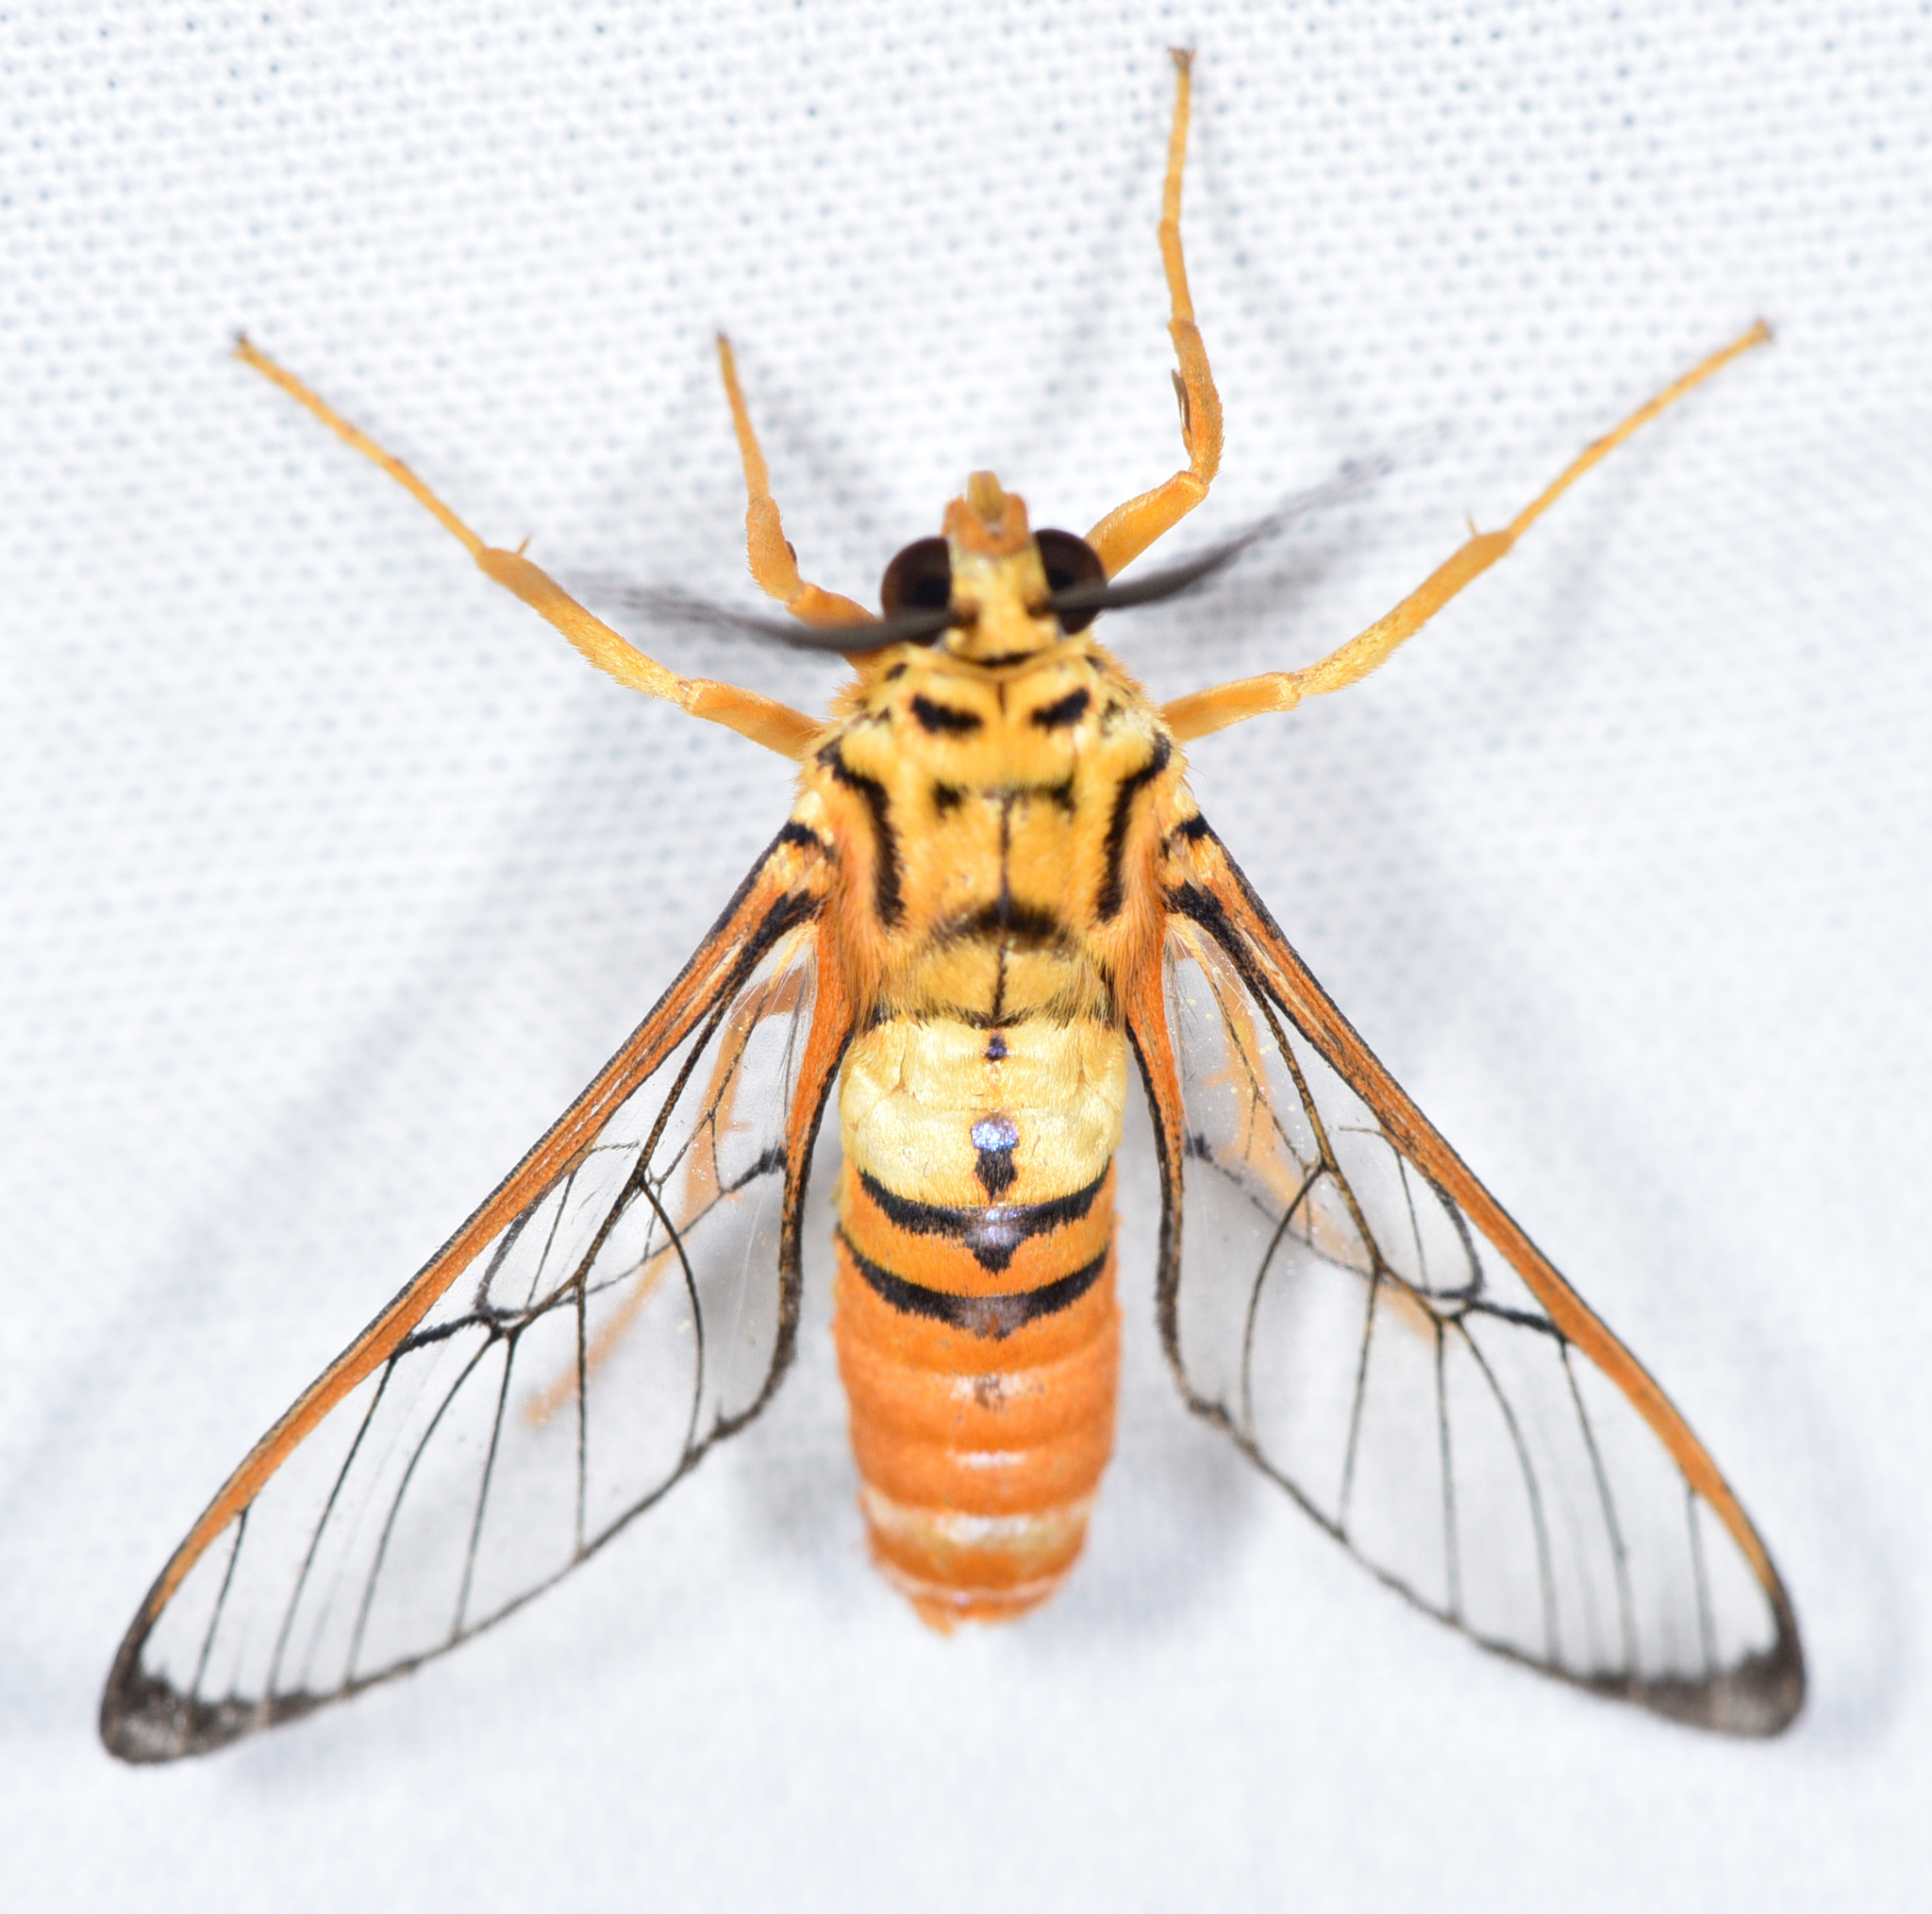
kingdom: Animalia
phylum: Arthropoda
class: Insecta
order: Lepidoptera
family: Erebidae
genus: Abrochia
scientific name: Abrochia fulvisphex
